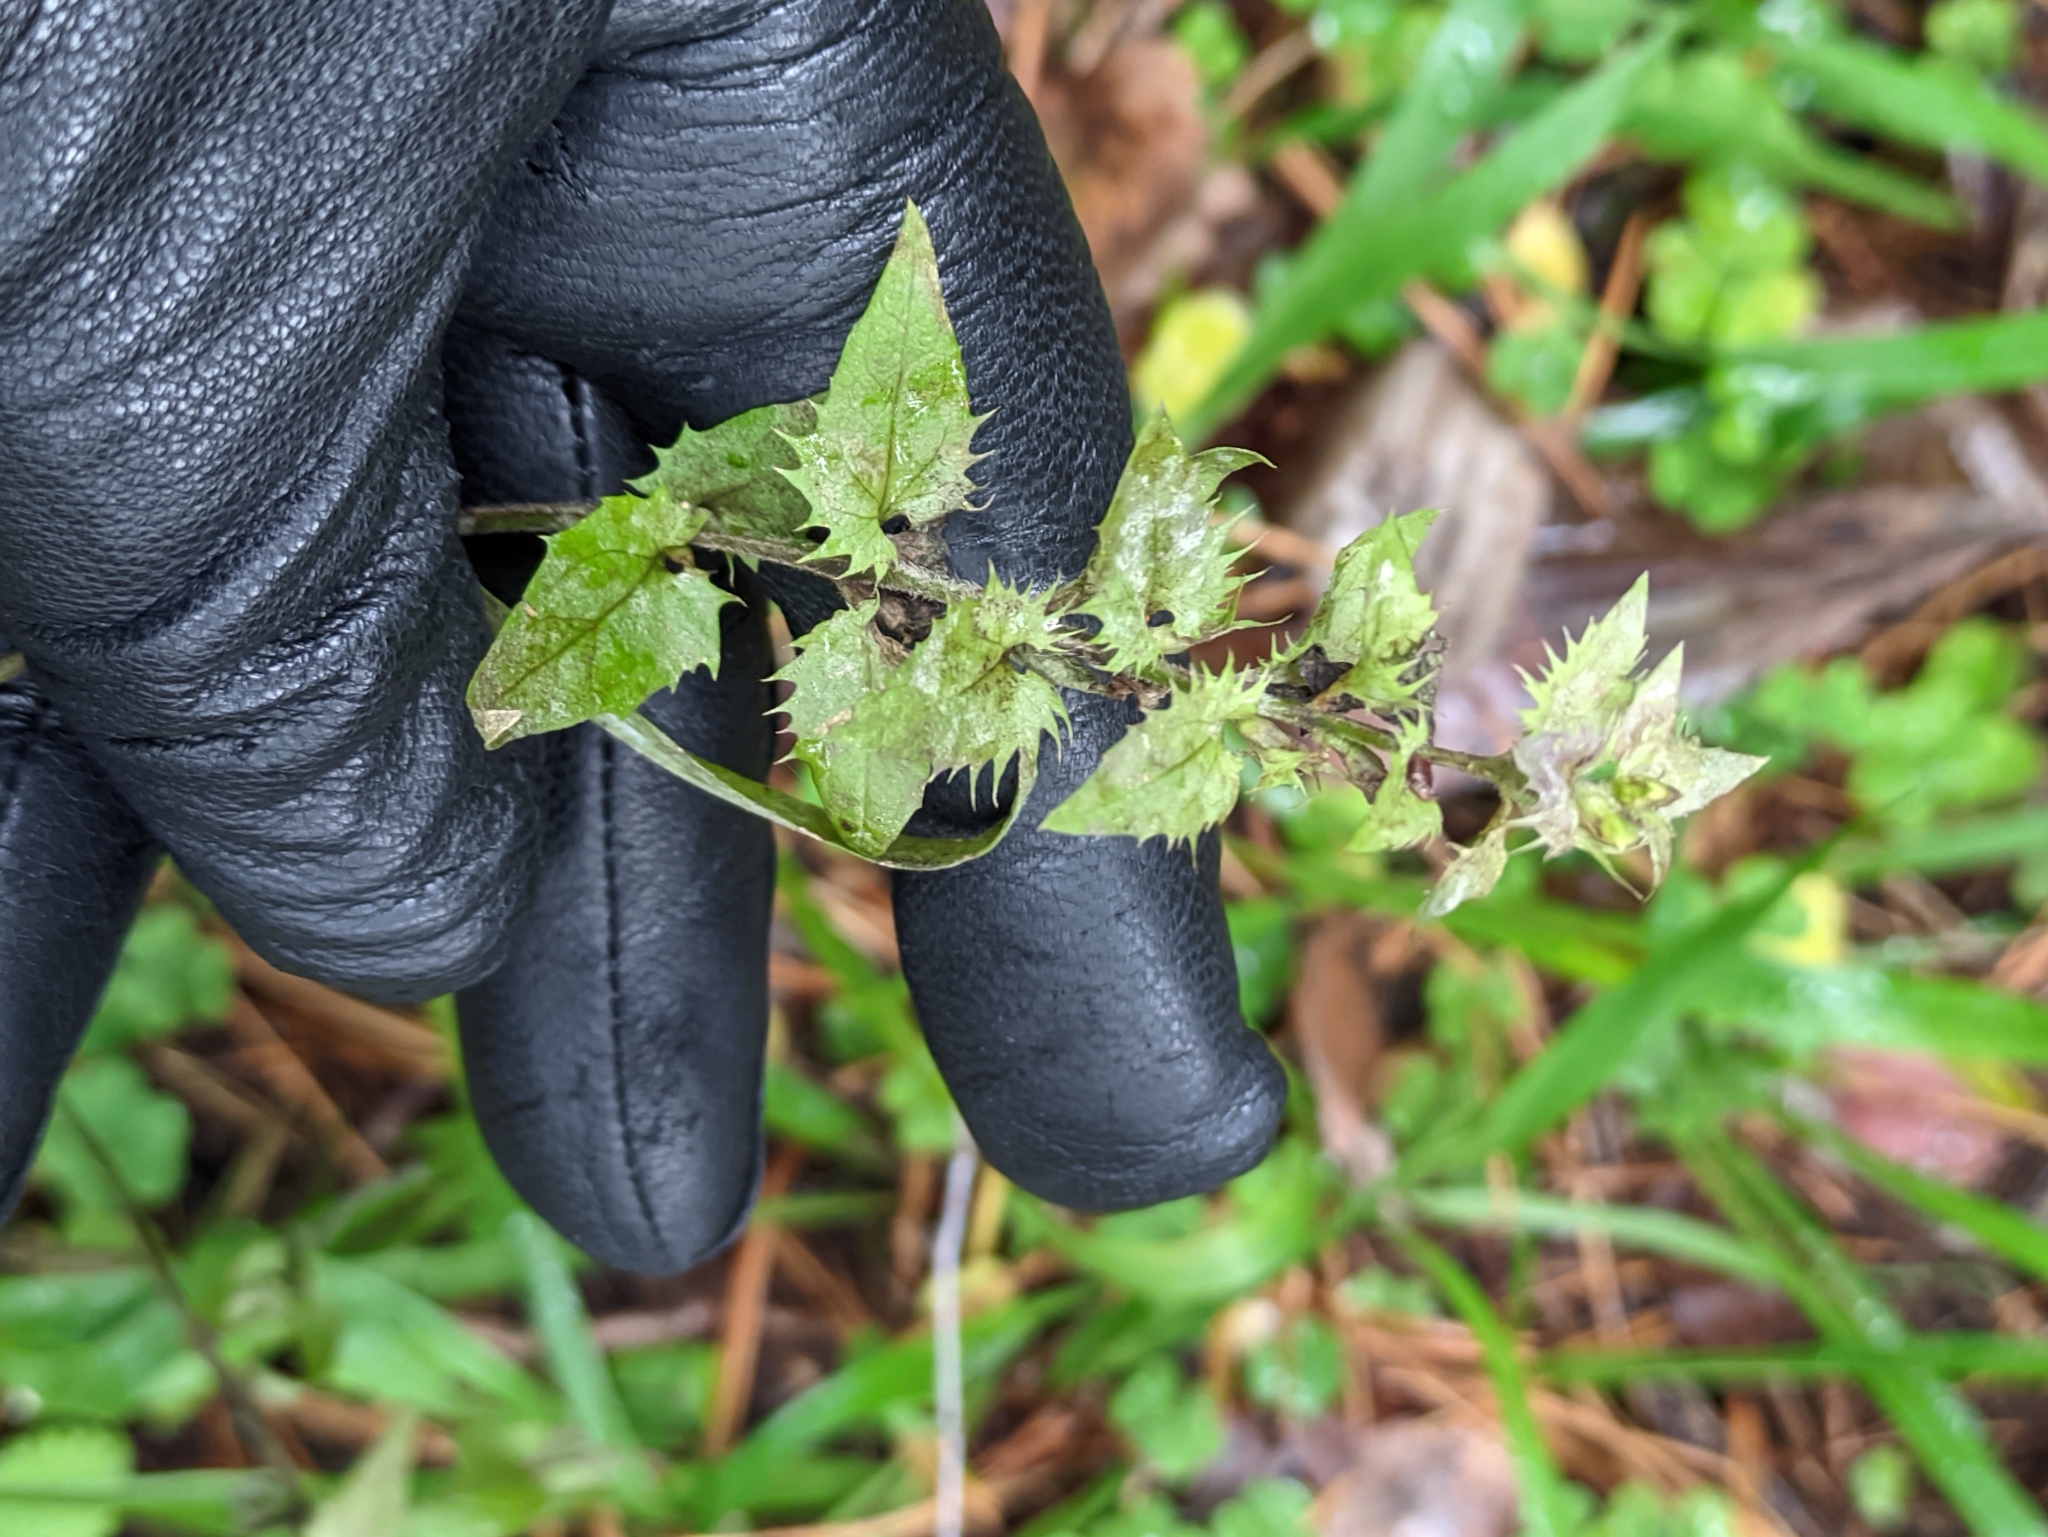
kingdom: Plantae
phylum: Tracheophyta
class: Magnoliopsida
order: Lamiales
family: Orobanchaceae
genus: Melampyrum
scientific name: Melampyrum nemorosum
